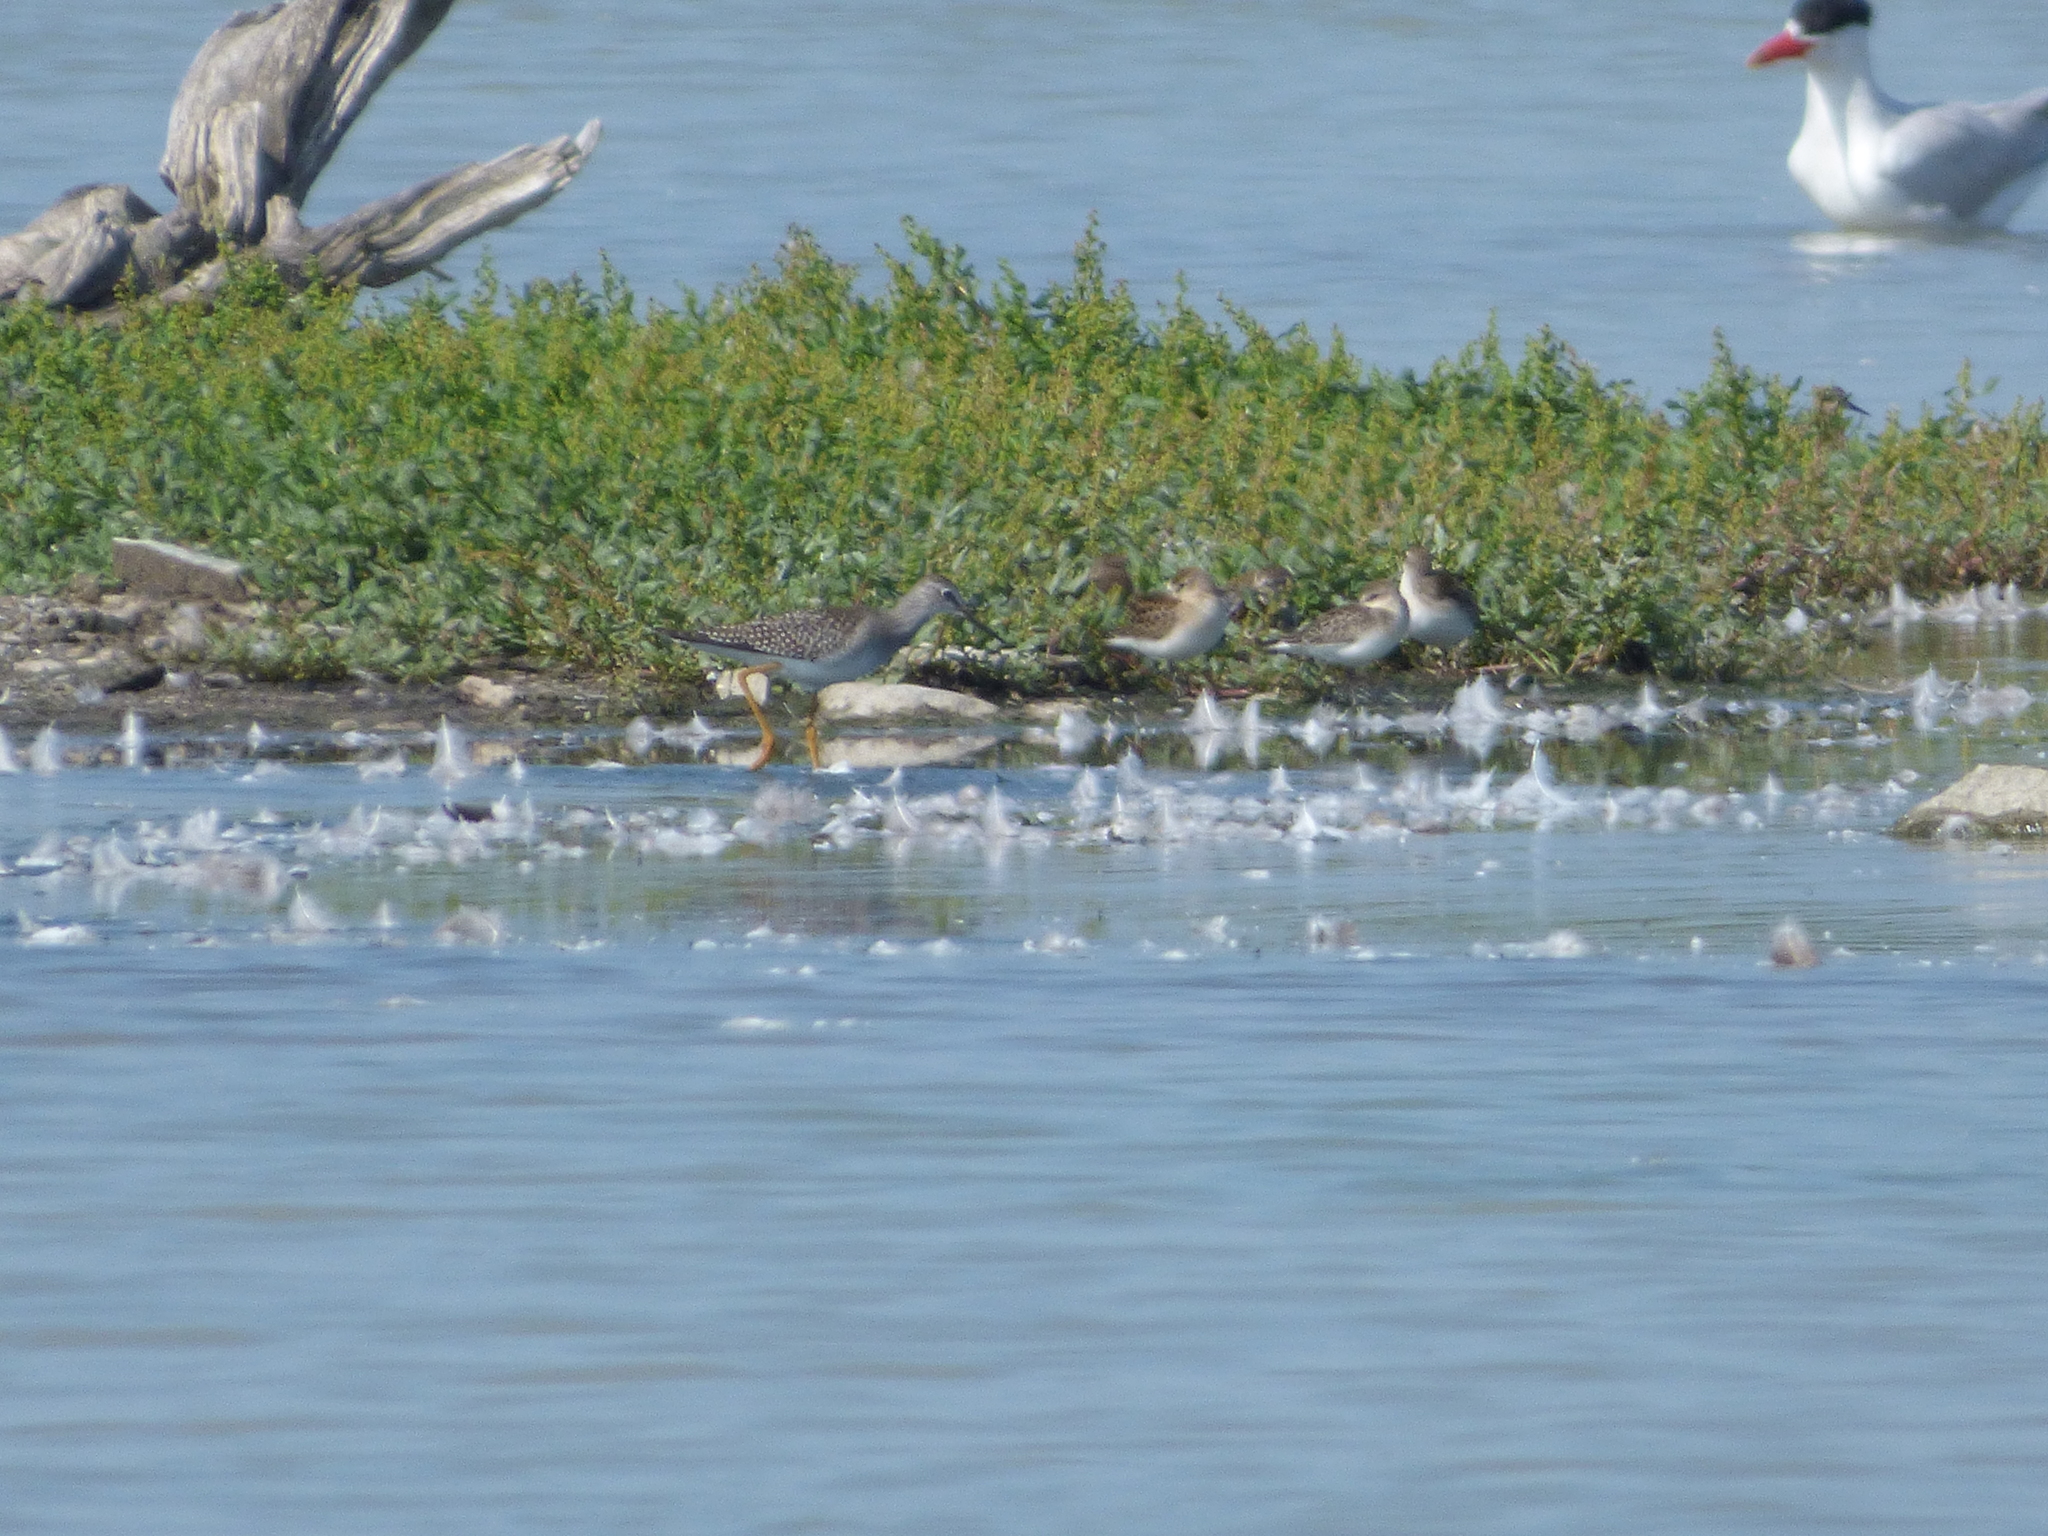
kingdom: Animalia
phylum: Chordata
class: Aves
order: Charadriiformes
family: Scolopacidae
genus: Tringa
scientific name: Tringa flavipes
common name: Lesser yellowlegs
